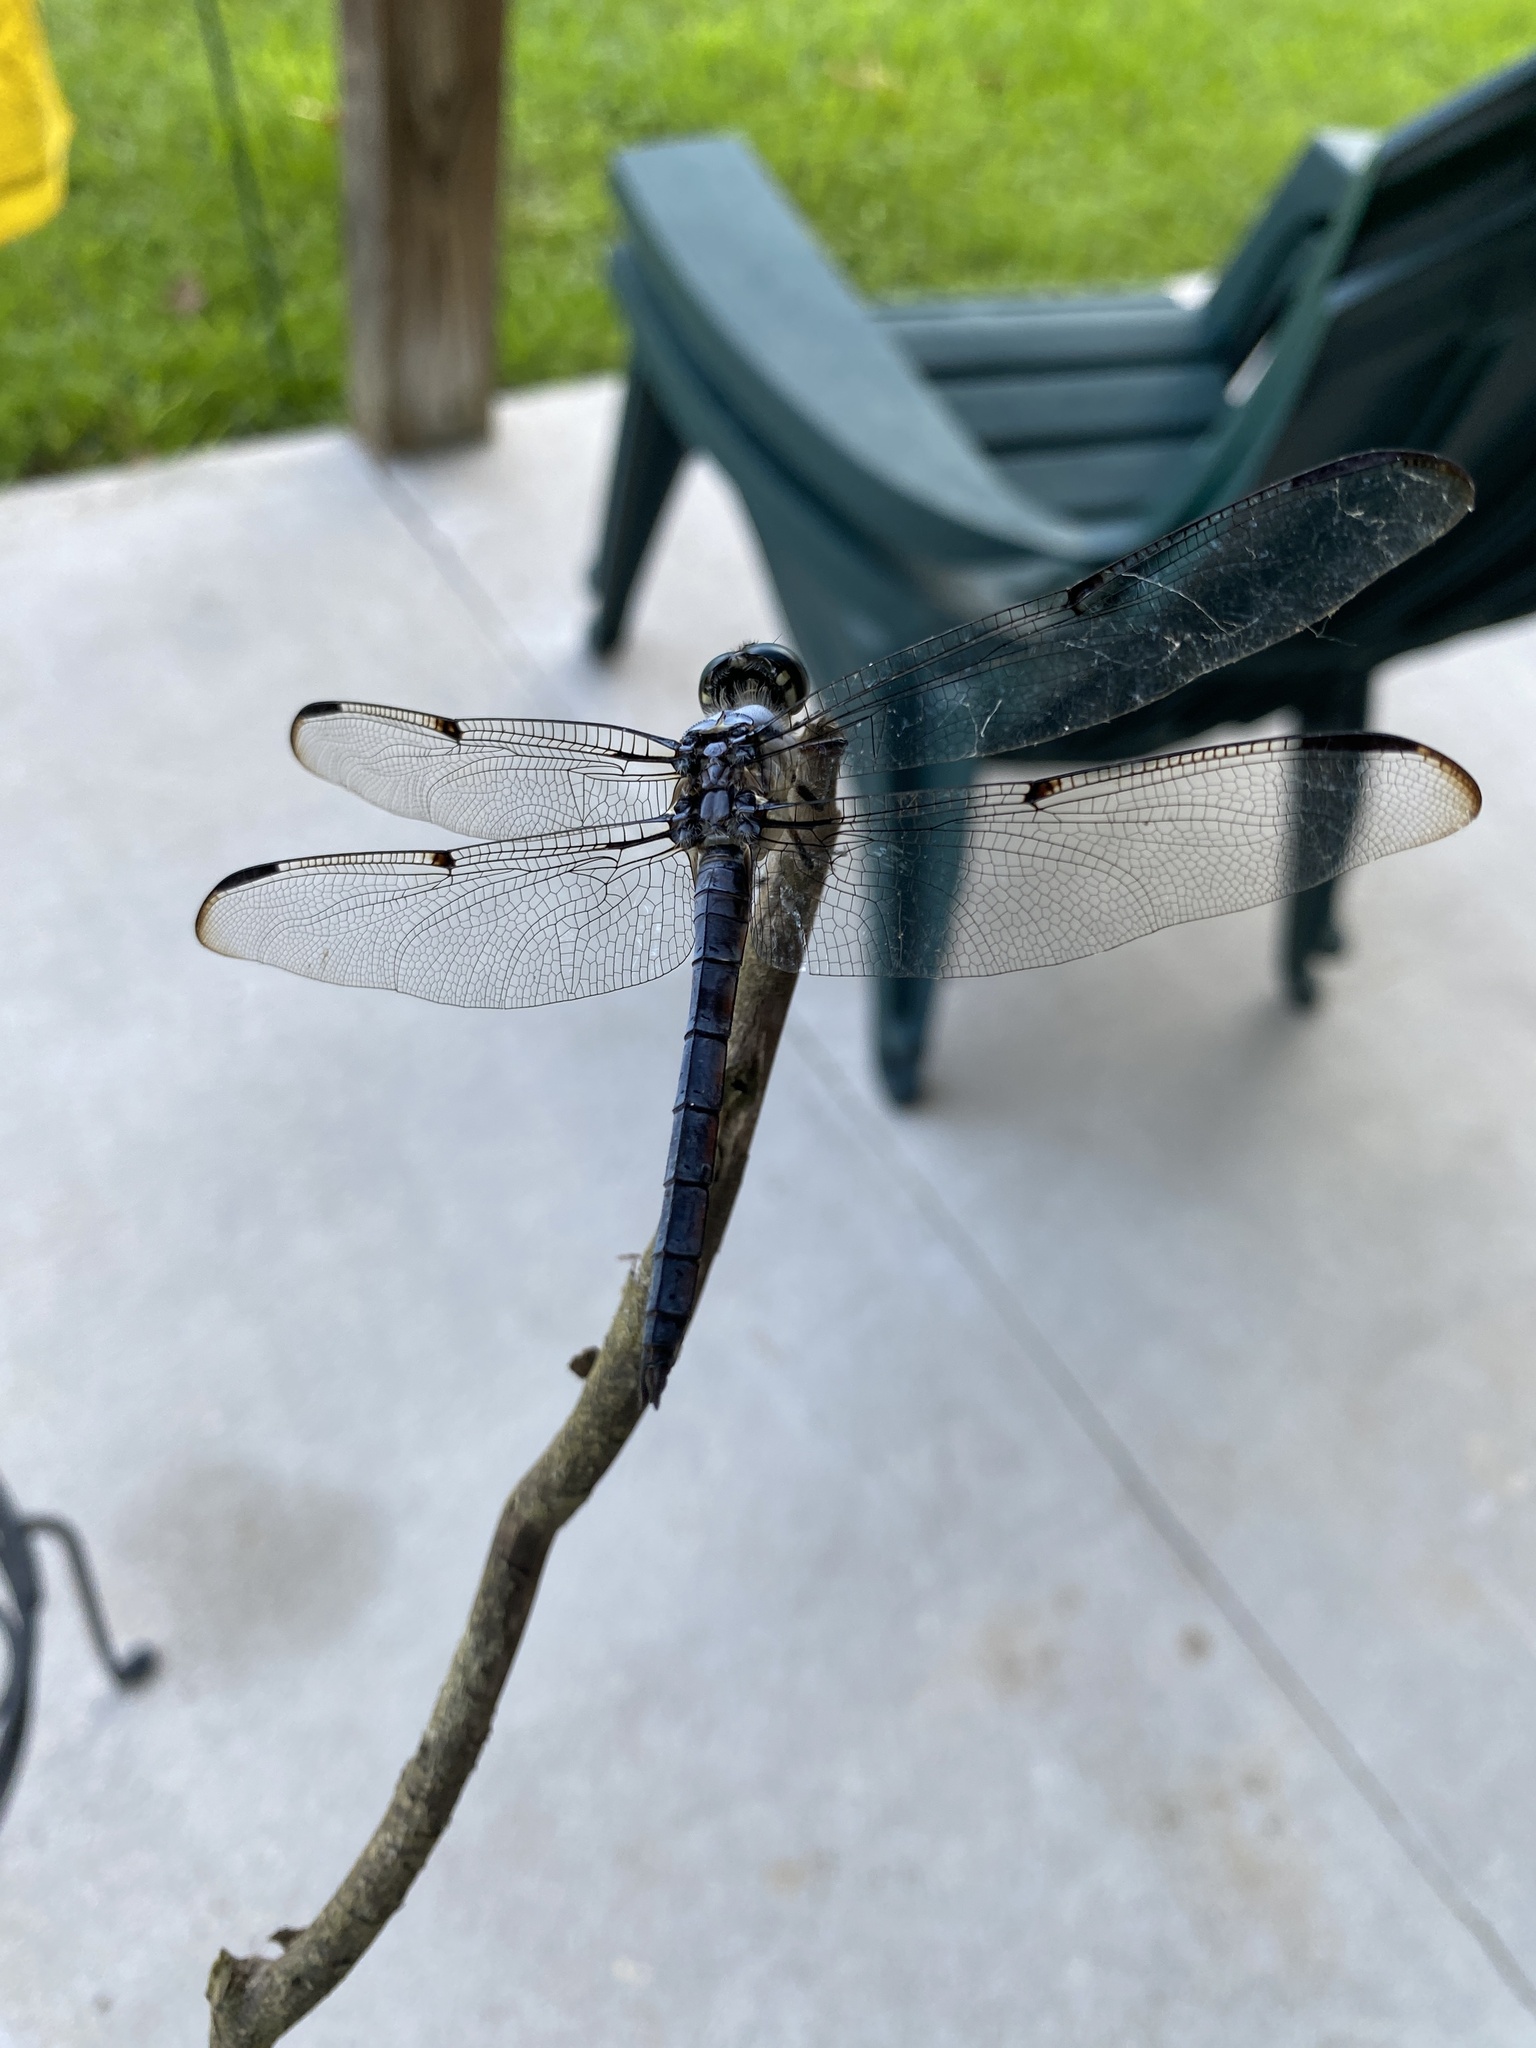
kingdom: Animalia
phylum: Arthropoda
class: Insecta
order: Odonata
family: Libellulidae
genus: Libellula
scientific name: Libellula vibrans
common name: Great blue skimmer
